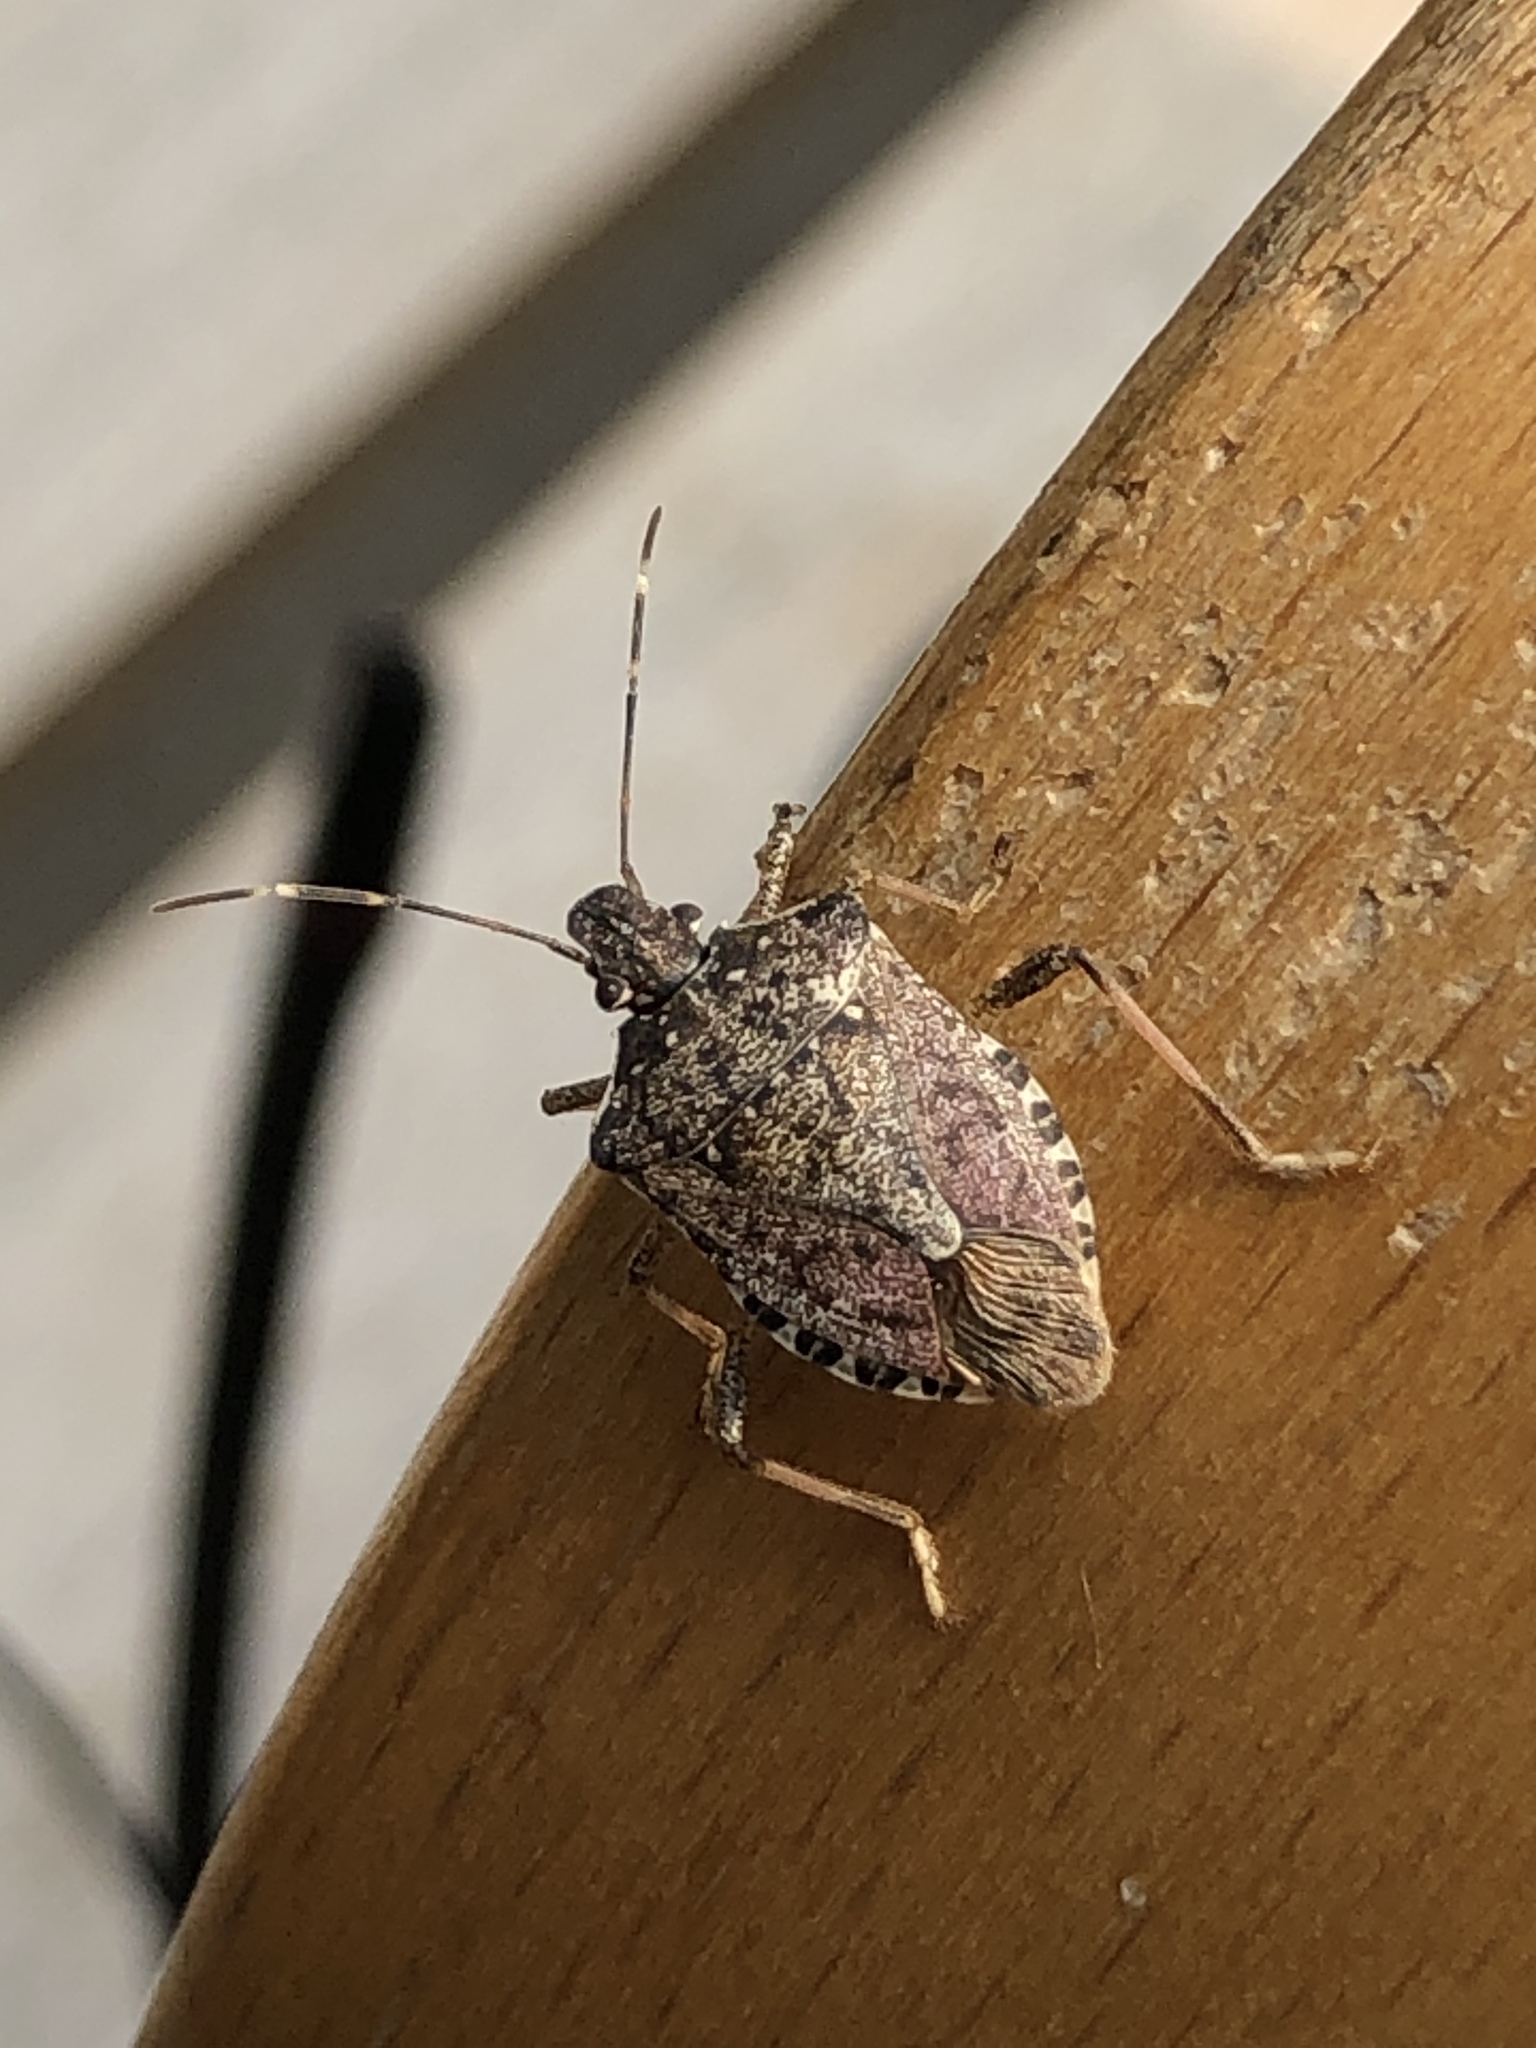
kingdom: Animalia
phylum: Arthropoda
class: Insecta
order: Hemiptera
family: Pentatomidae
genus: Halyomorpha
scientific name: Halyomorpha halys
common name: Brown marmorated stink bug
